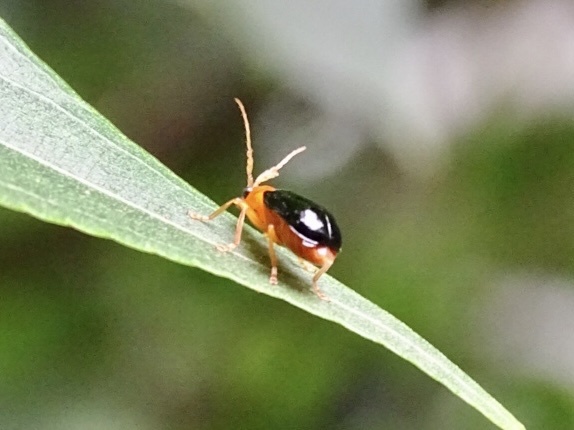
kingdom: Animalia
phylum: Arthropoda
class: Insecta
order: Coleoptera
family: Chrysomelidae
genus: Aulacophora
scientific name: Aulacophora palliata
